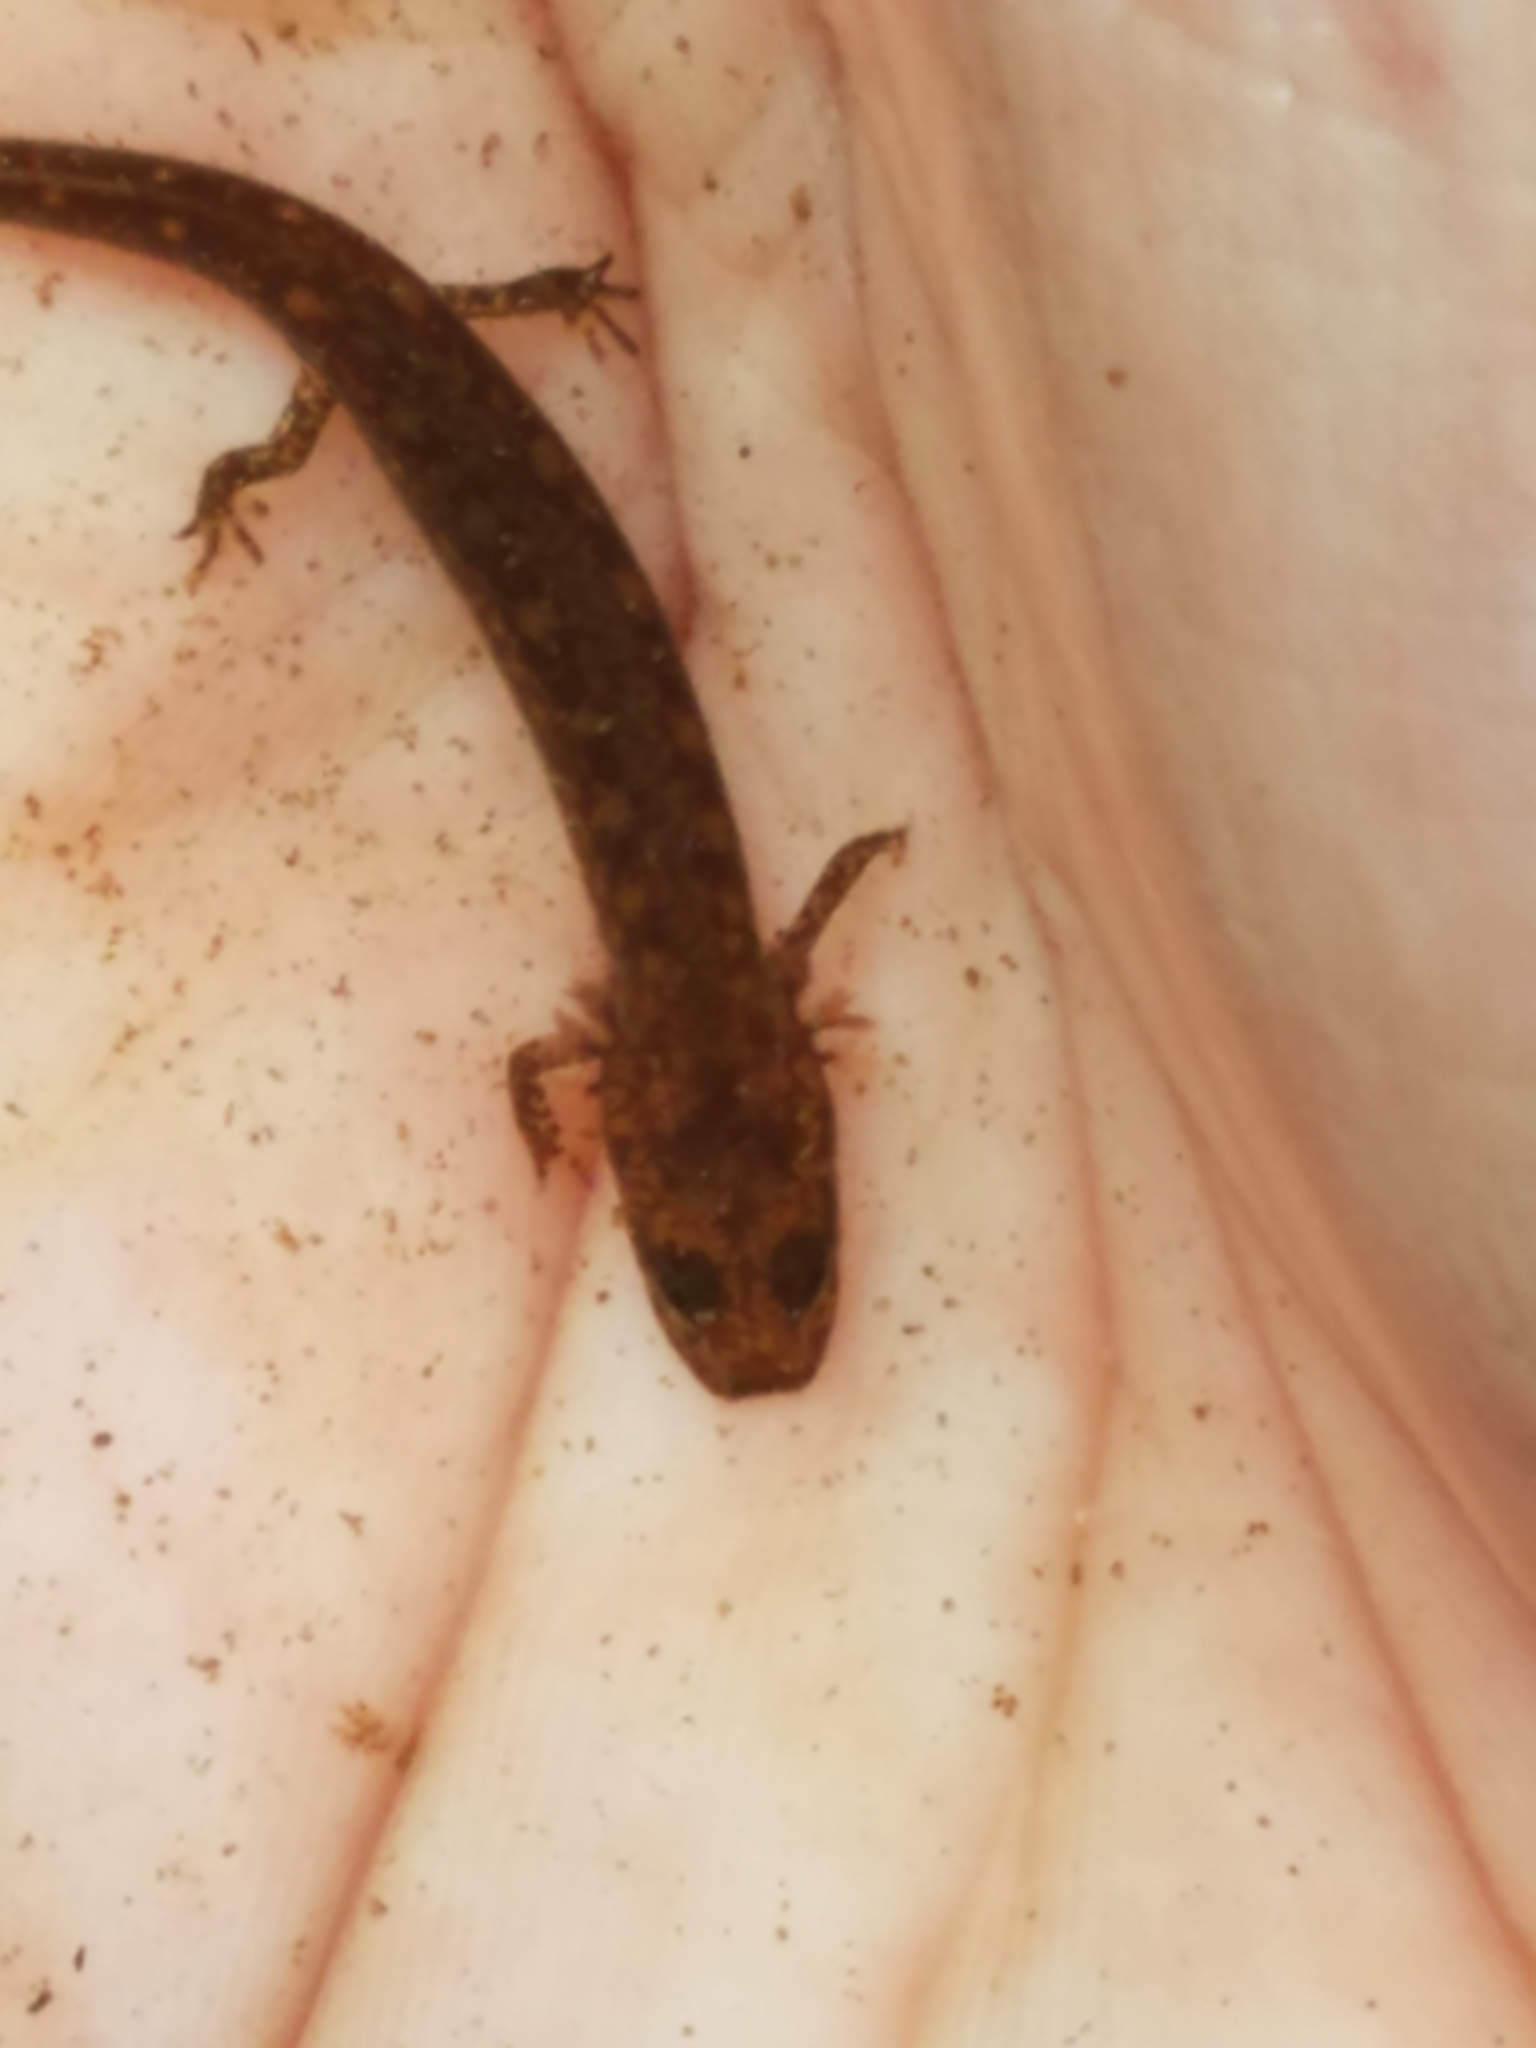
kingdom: Animalia
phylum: Chordata
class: Amphibia
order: Caudata
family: Plethodontidae
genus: Eurycea
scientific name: Eurycea bislineata
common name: Northern two-lined salamander
